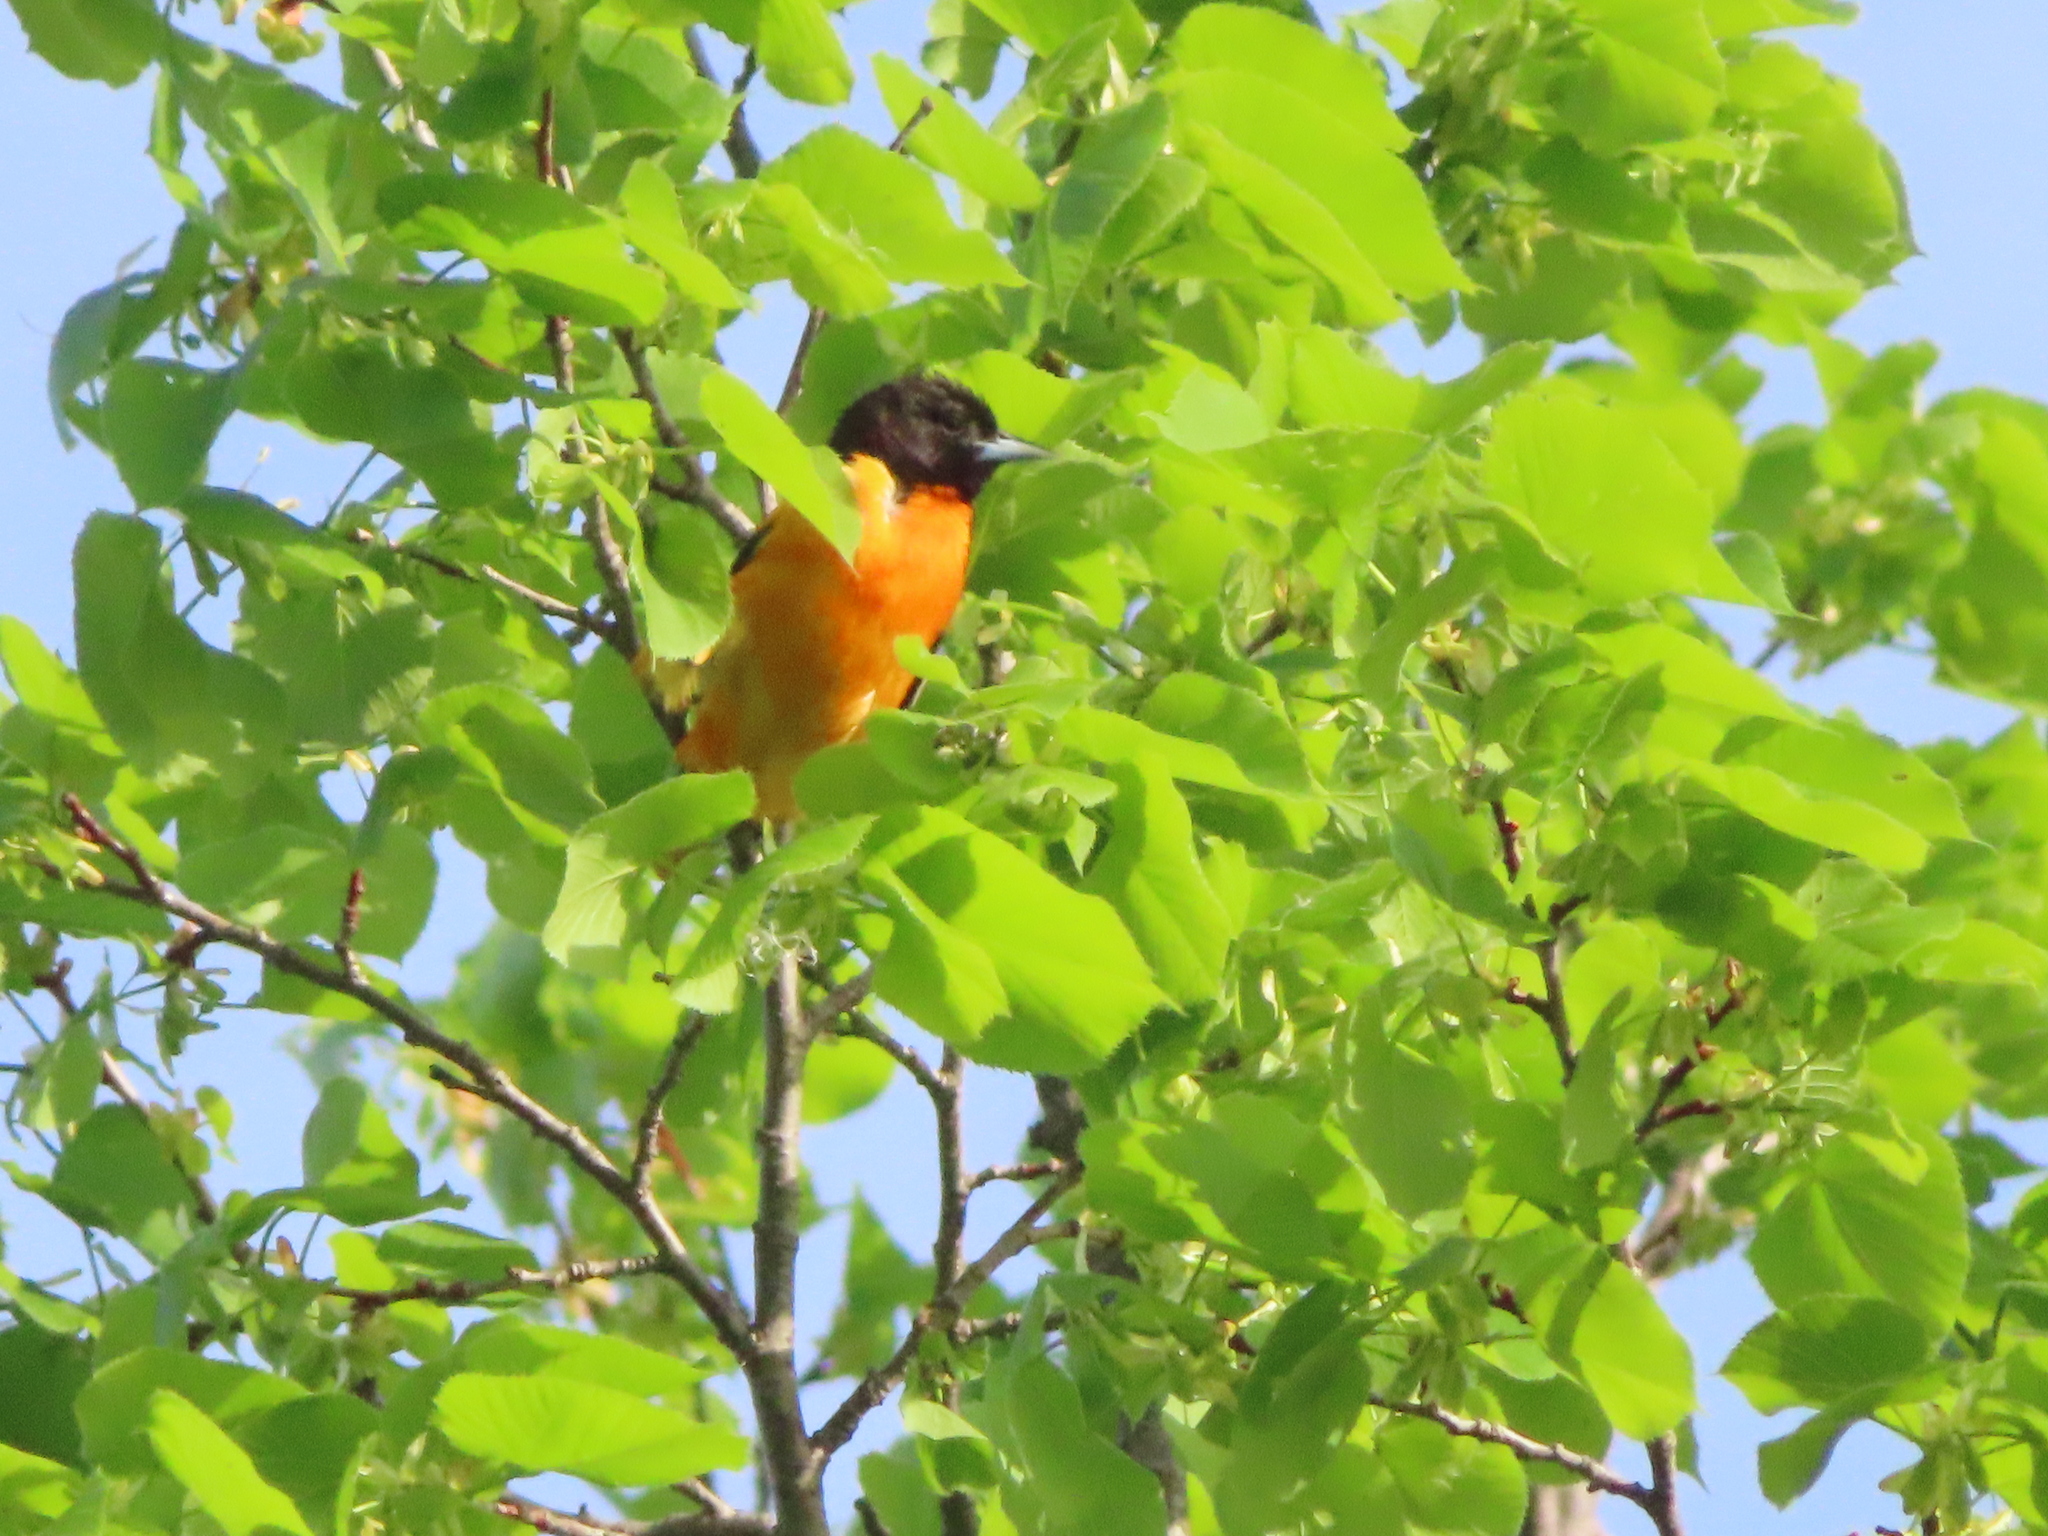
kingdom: Animalia
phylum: Chordata
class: Aves
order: Passeriformes
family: Icteridae
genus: Icterus
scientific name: Icterus galbula
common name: Baltimore oriole
